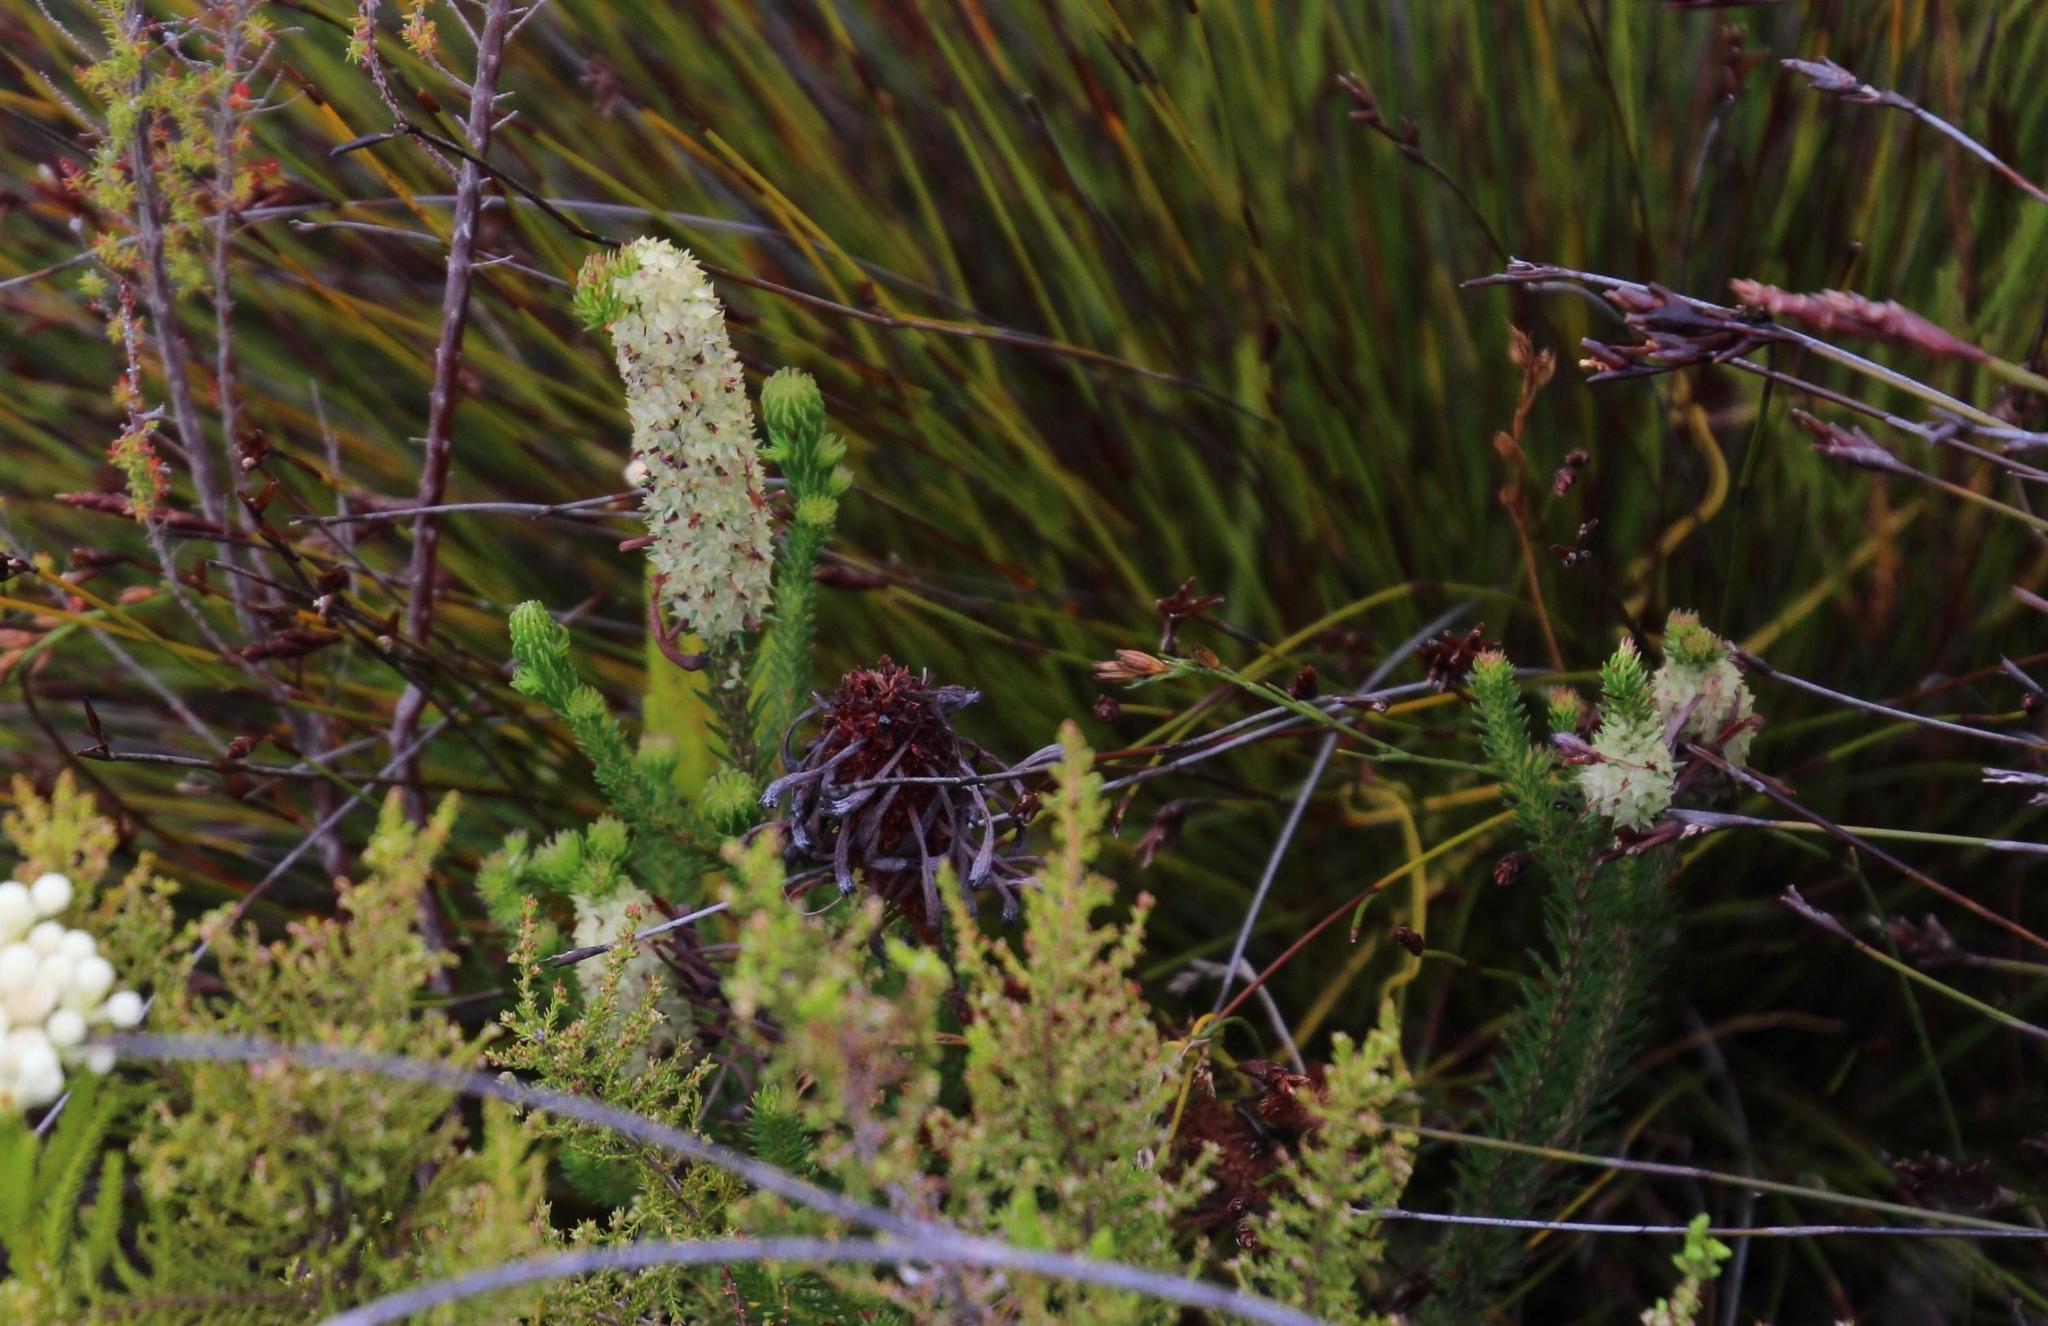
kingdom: Plantae
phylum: Tracheophyta
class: Magnoliopsida
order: Ericales
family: Ericaceae
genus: Erica
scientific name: Erica sessiliflora
